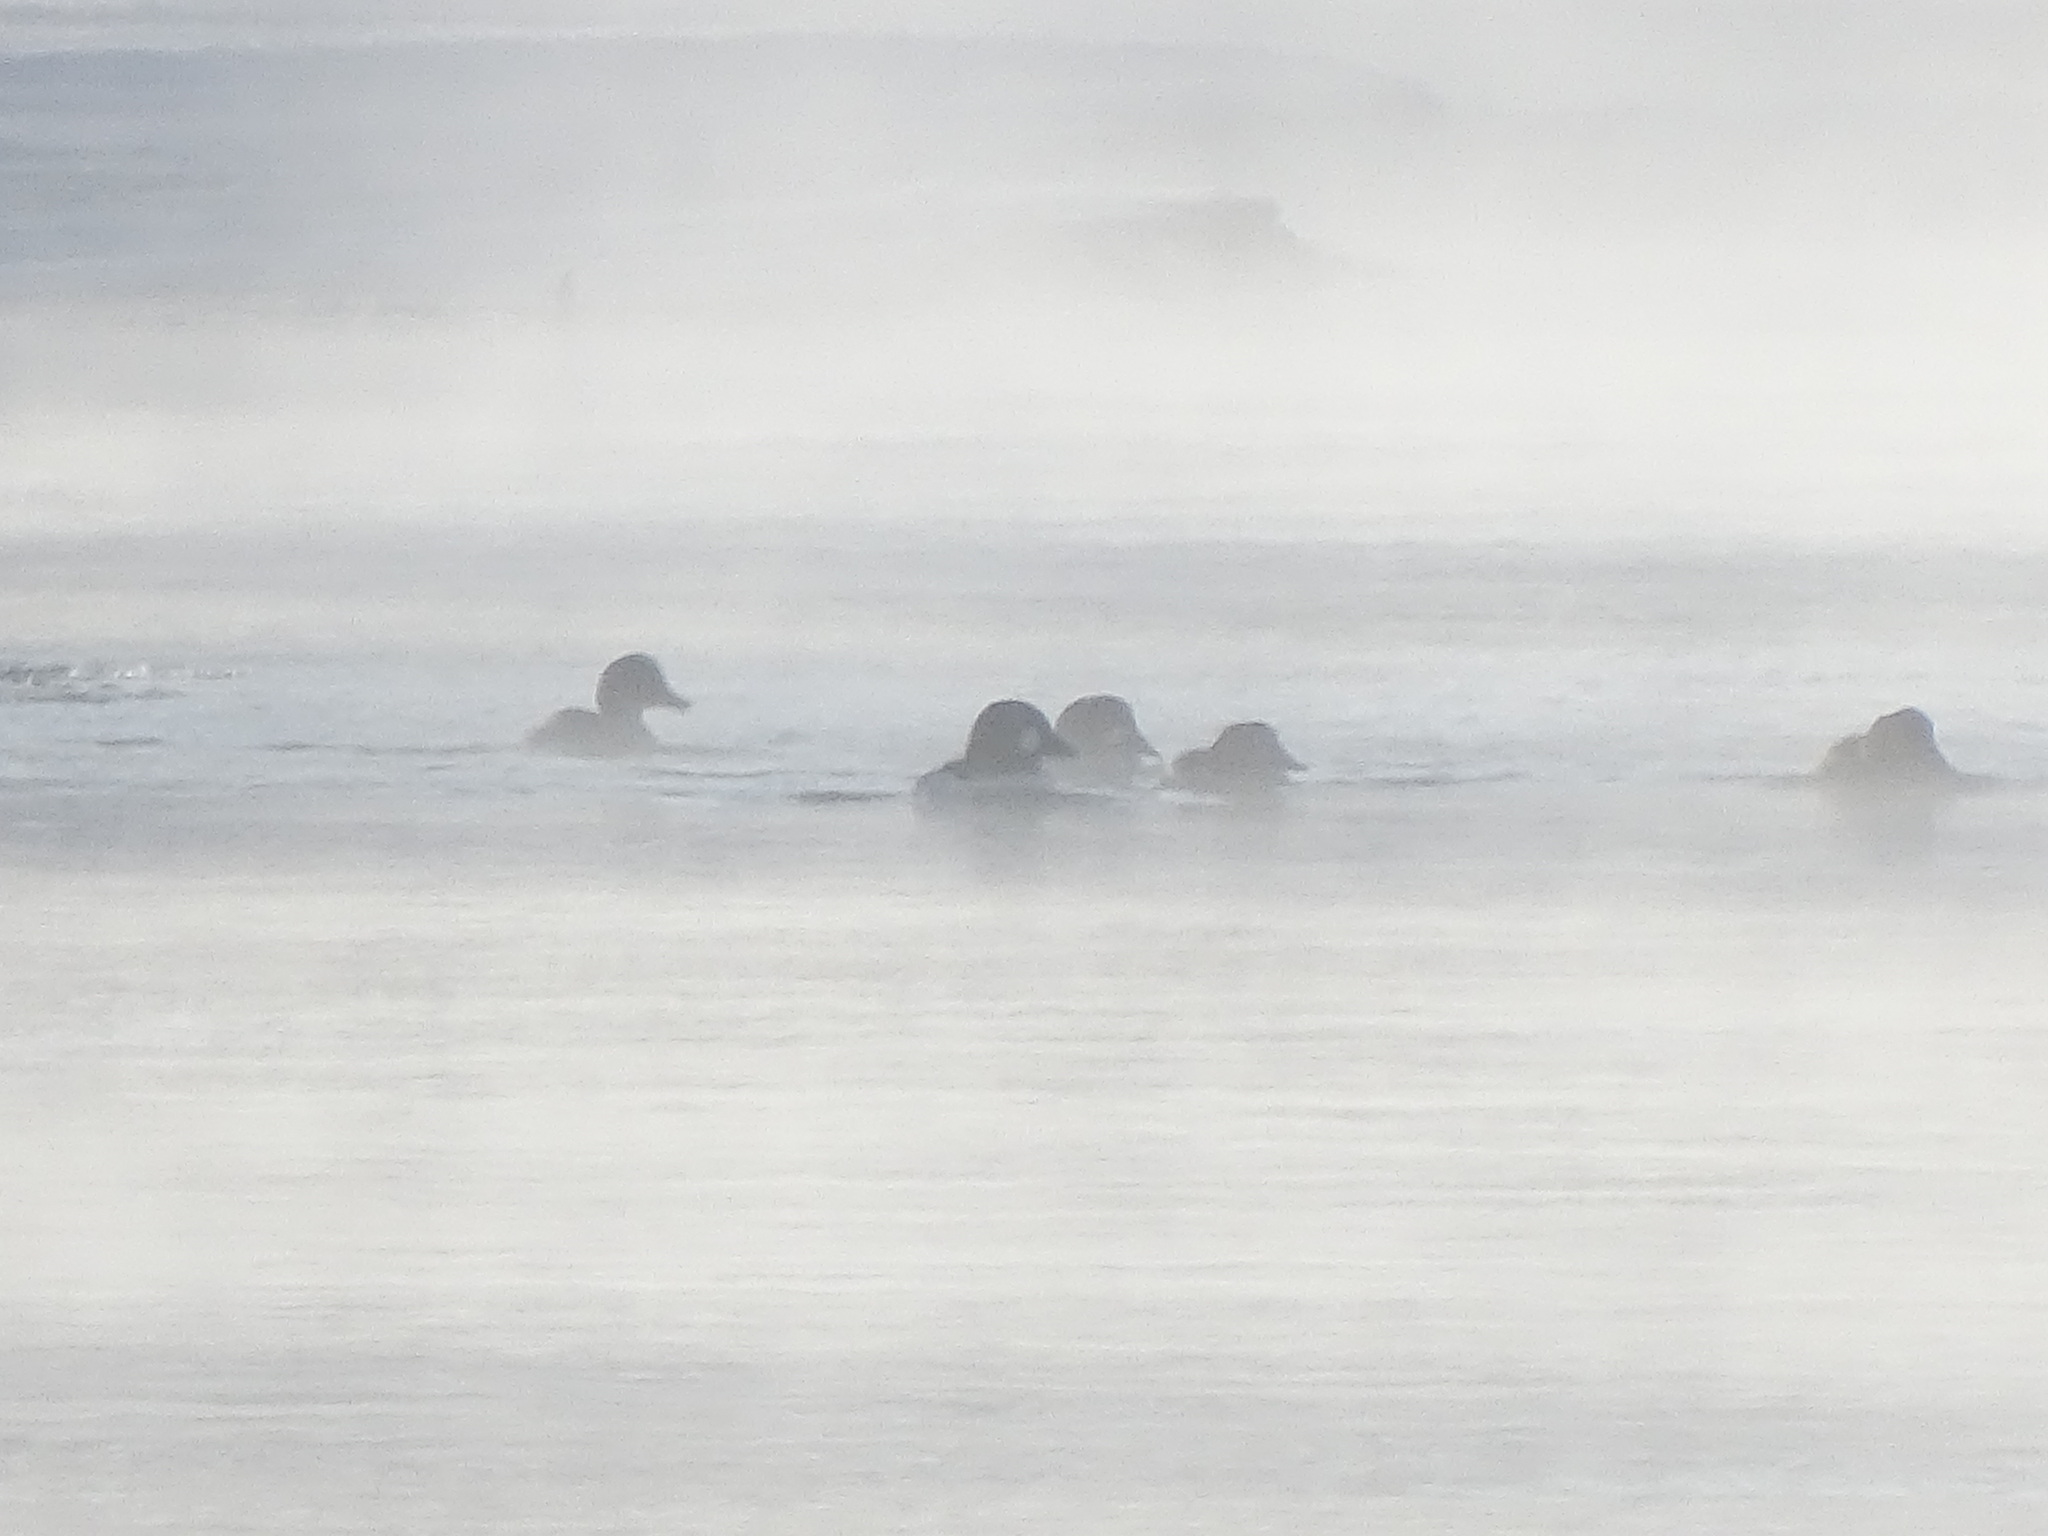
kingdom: Animalia
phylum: Chordata
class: Aves
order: Anseriformes
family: Anatidae
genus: Bucephala
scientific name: Bucephala clangula
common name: Common goldeneye
